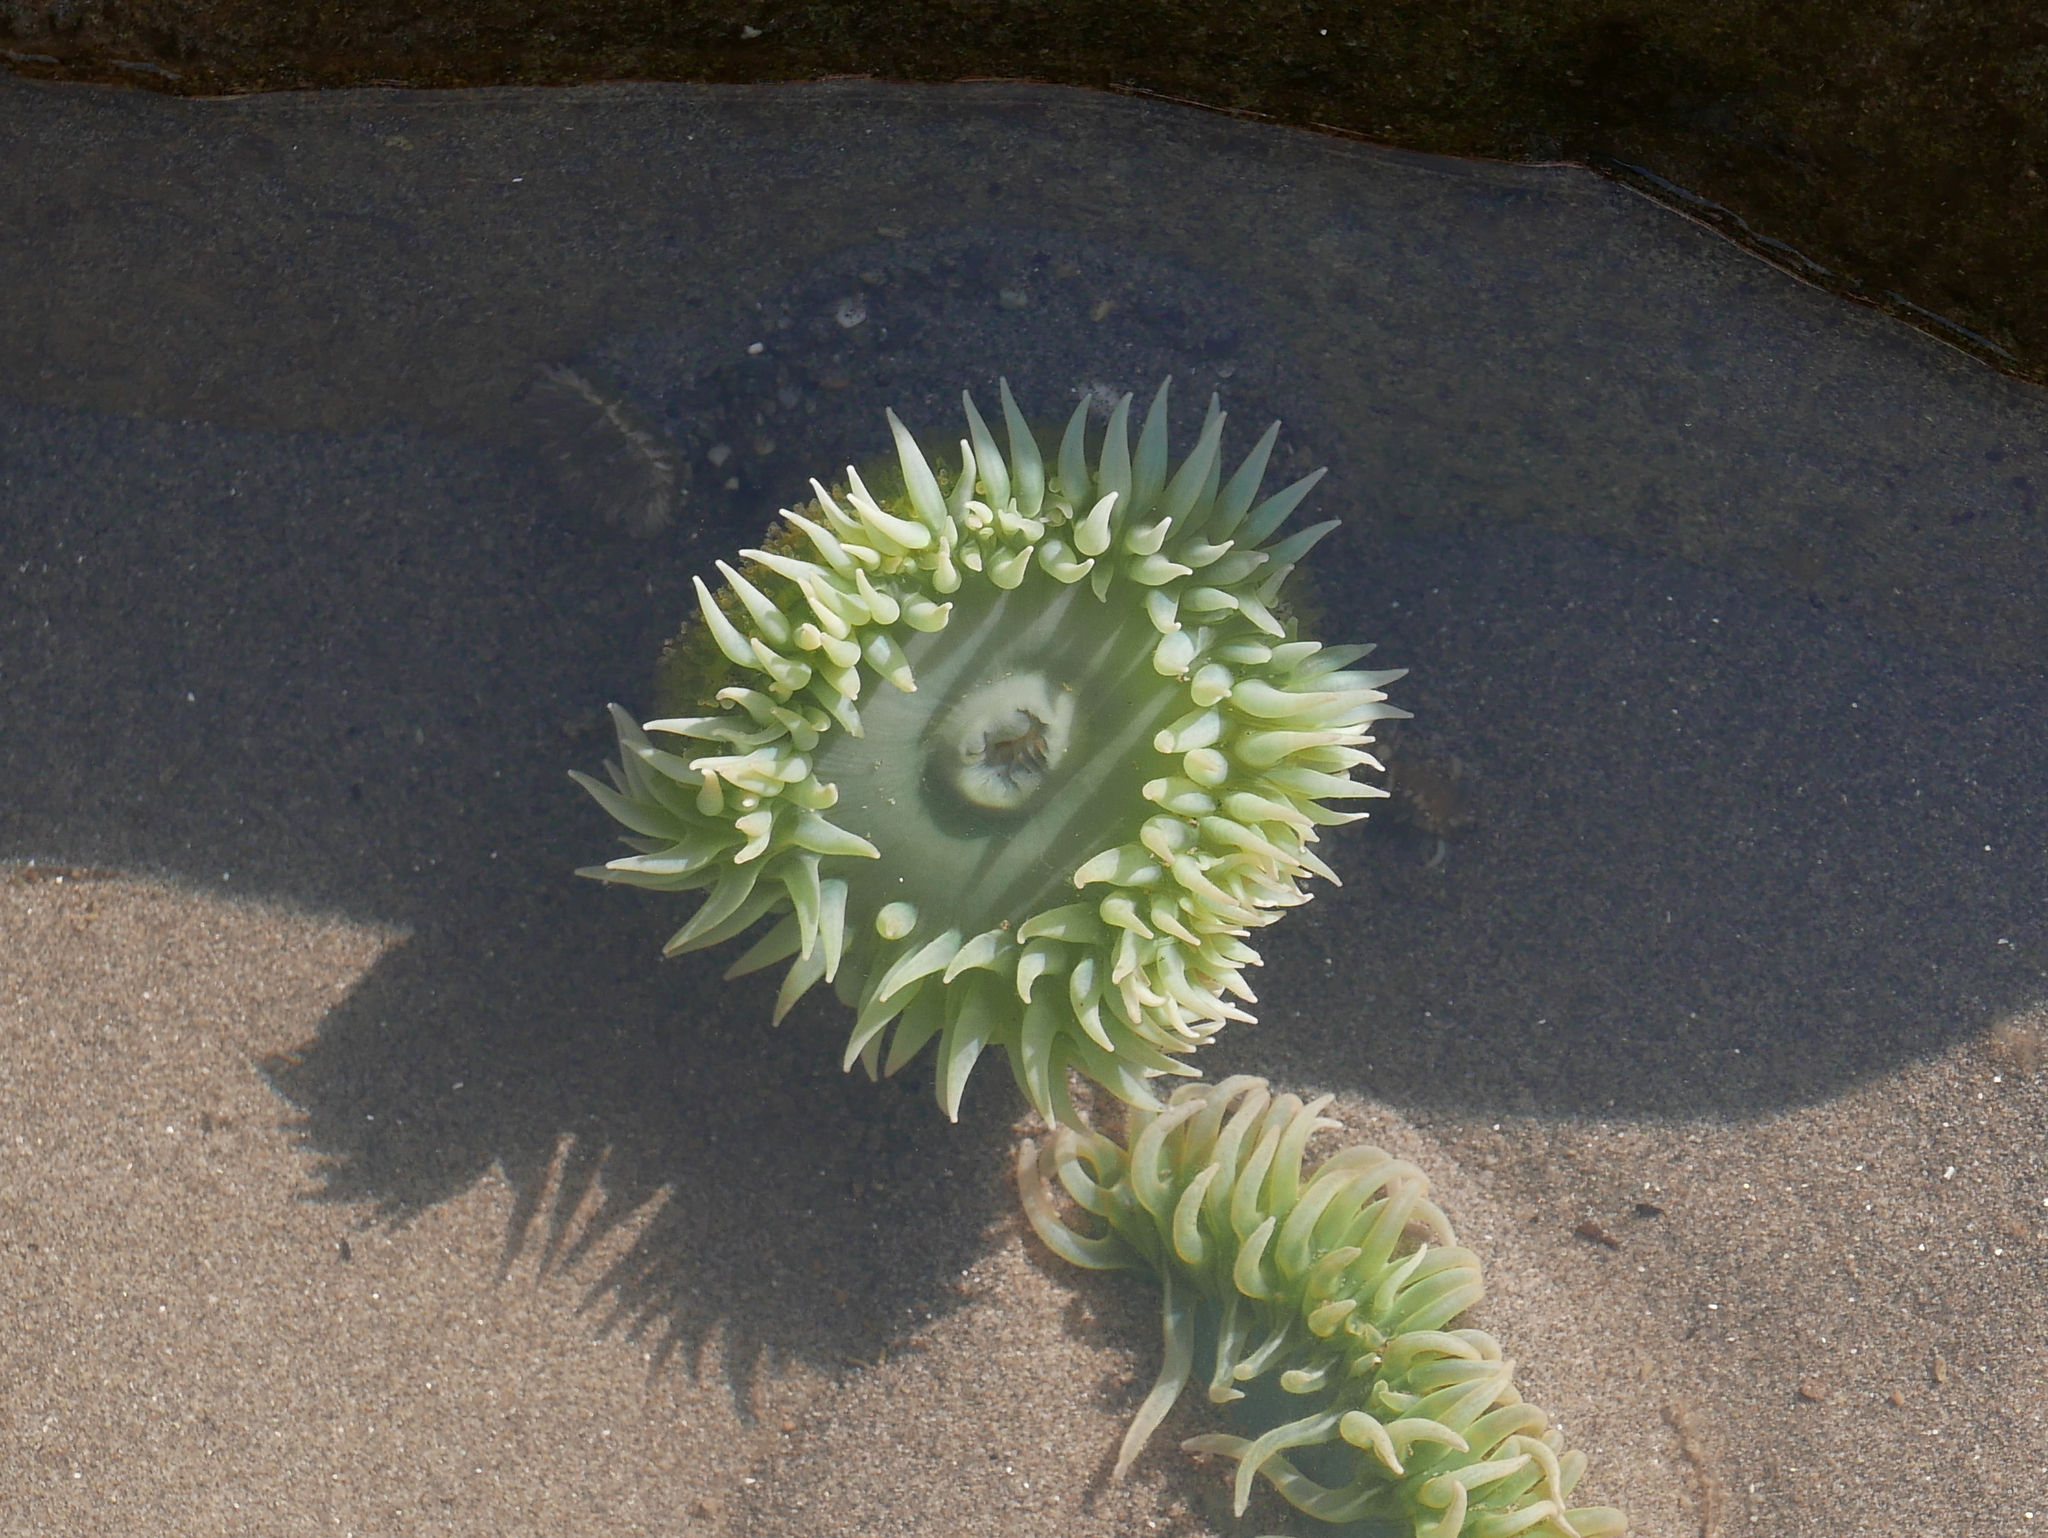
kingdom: Animalia
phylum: Cnidaria
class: Anthozoa
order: Actiniaria
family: Actiniidae
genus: Anthopleura
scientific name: Anthopleura xanthogrammica
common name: Giant green anemone
